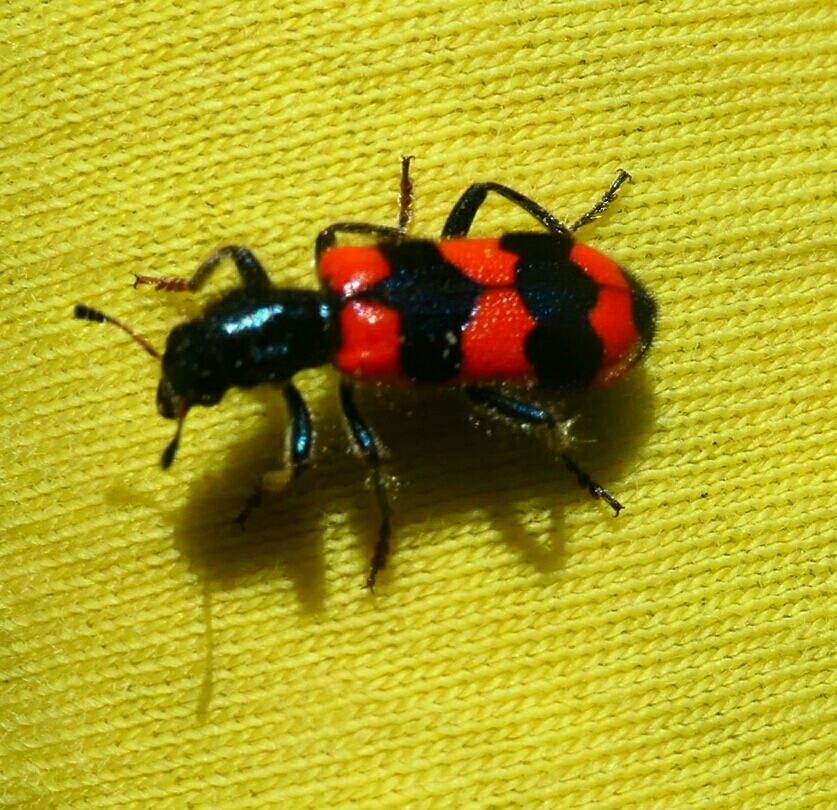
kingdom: Animalia
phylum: Arthropoda
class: Insecta
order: Coleoptera
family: Cleridae
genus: Trichodes
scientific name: Trichodes apiarius
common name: Bee-eating beetle
